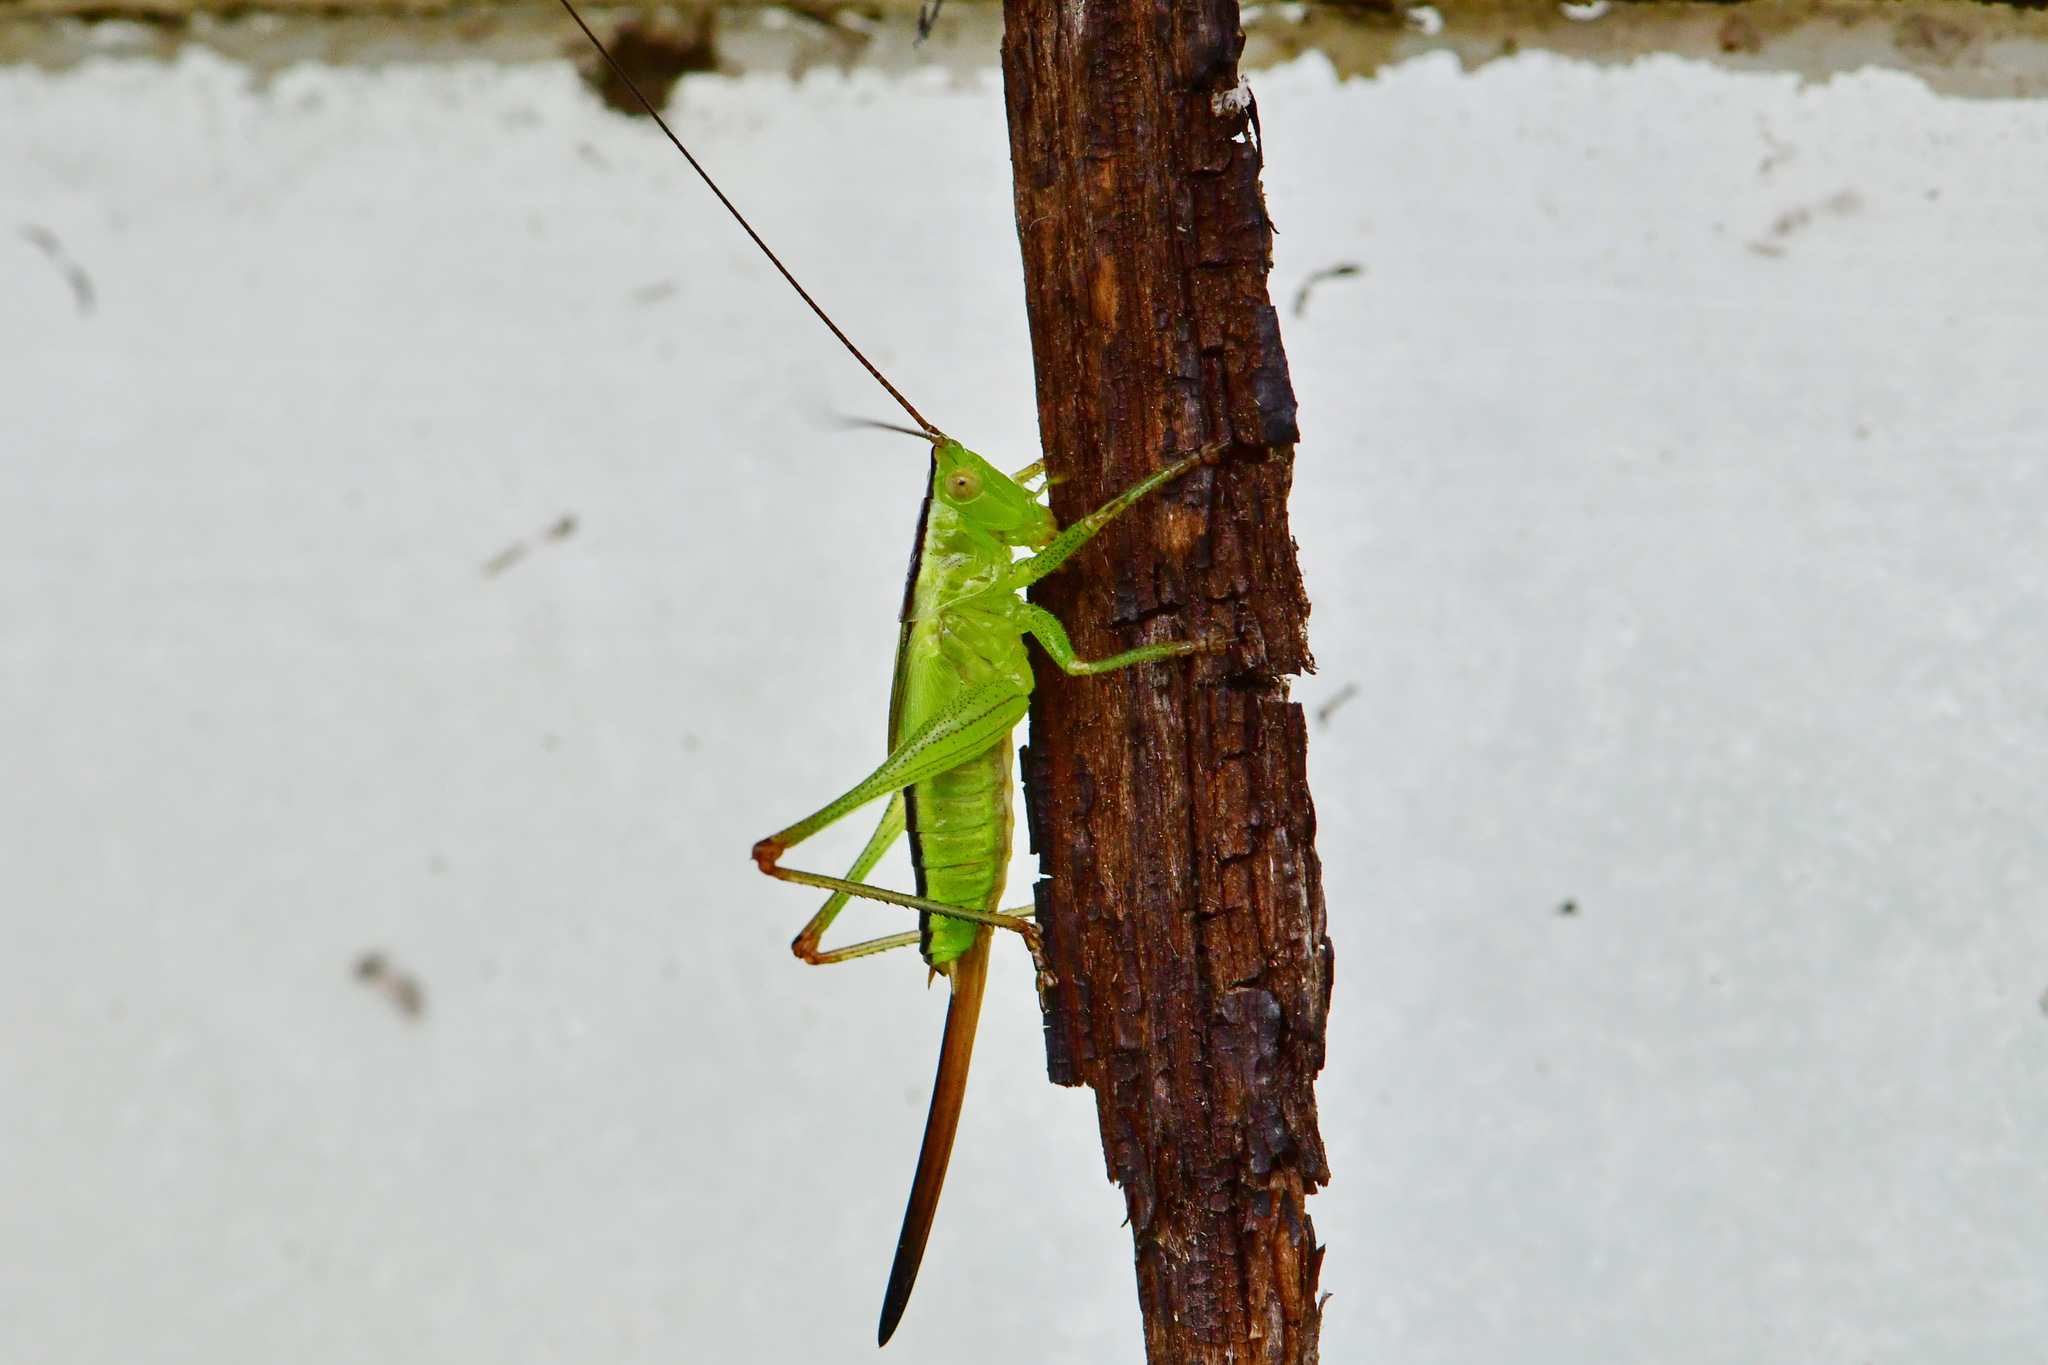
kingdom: Animalia
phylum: Arthropoda
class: Insecta
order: Orthoptera
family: Tettigoniidae
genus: Conocephalus
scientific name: Conocephalus fuscus
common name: Long-winged conehead
